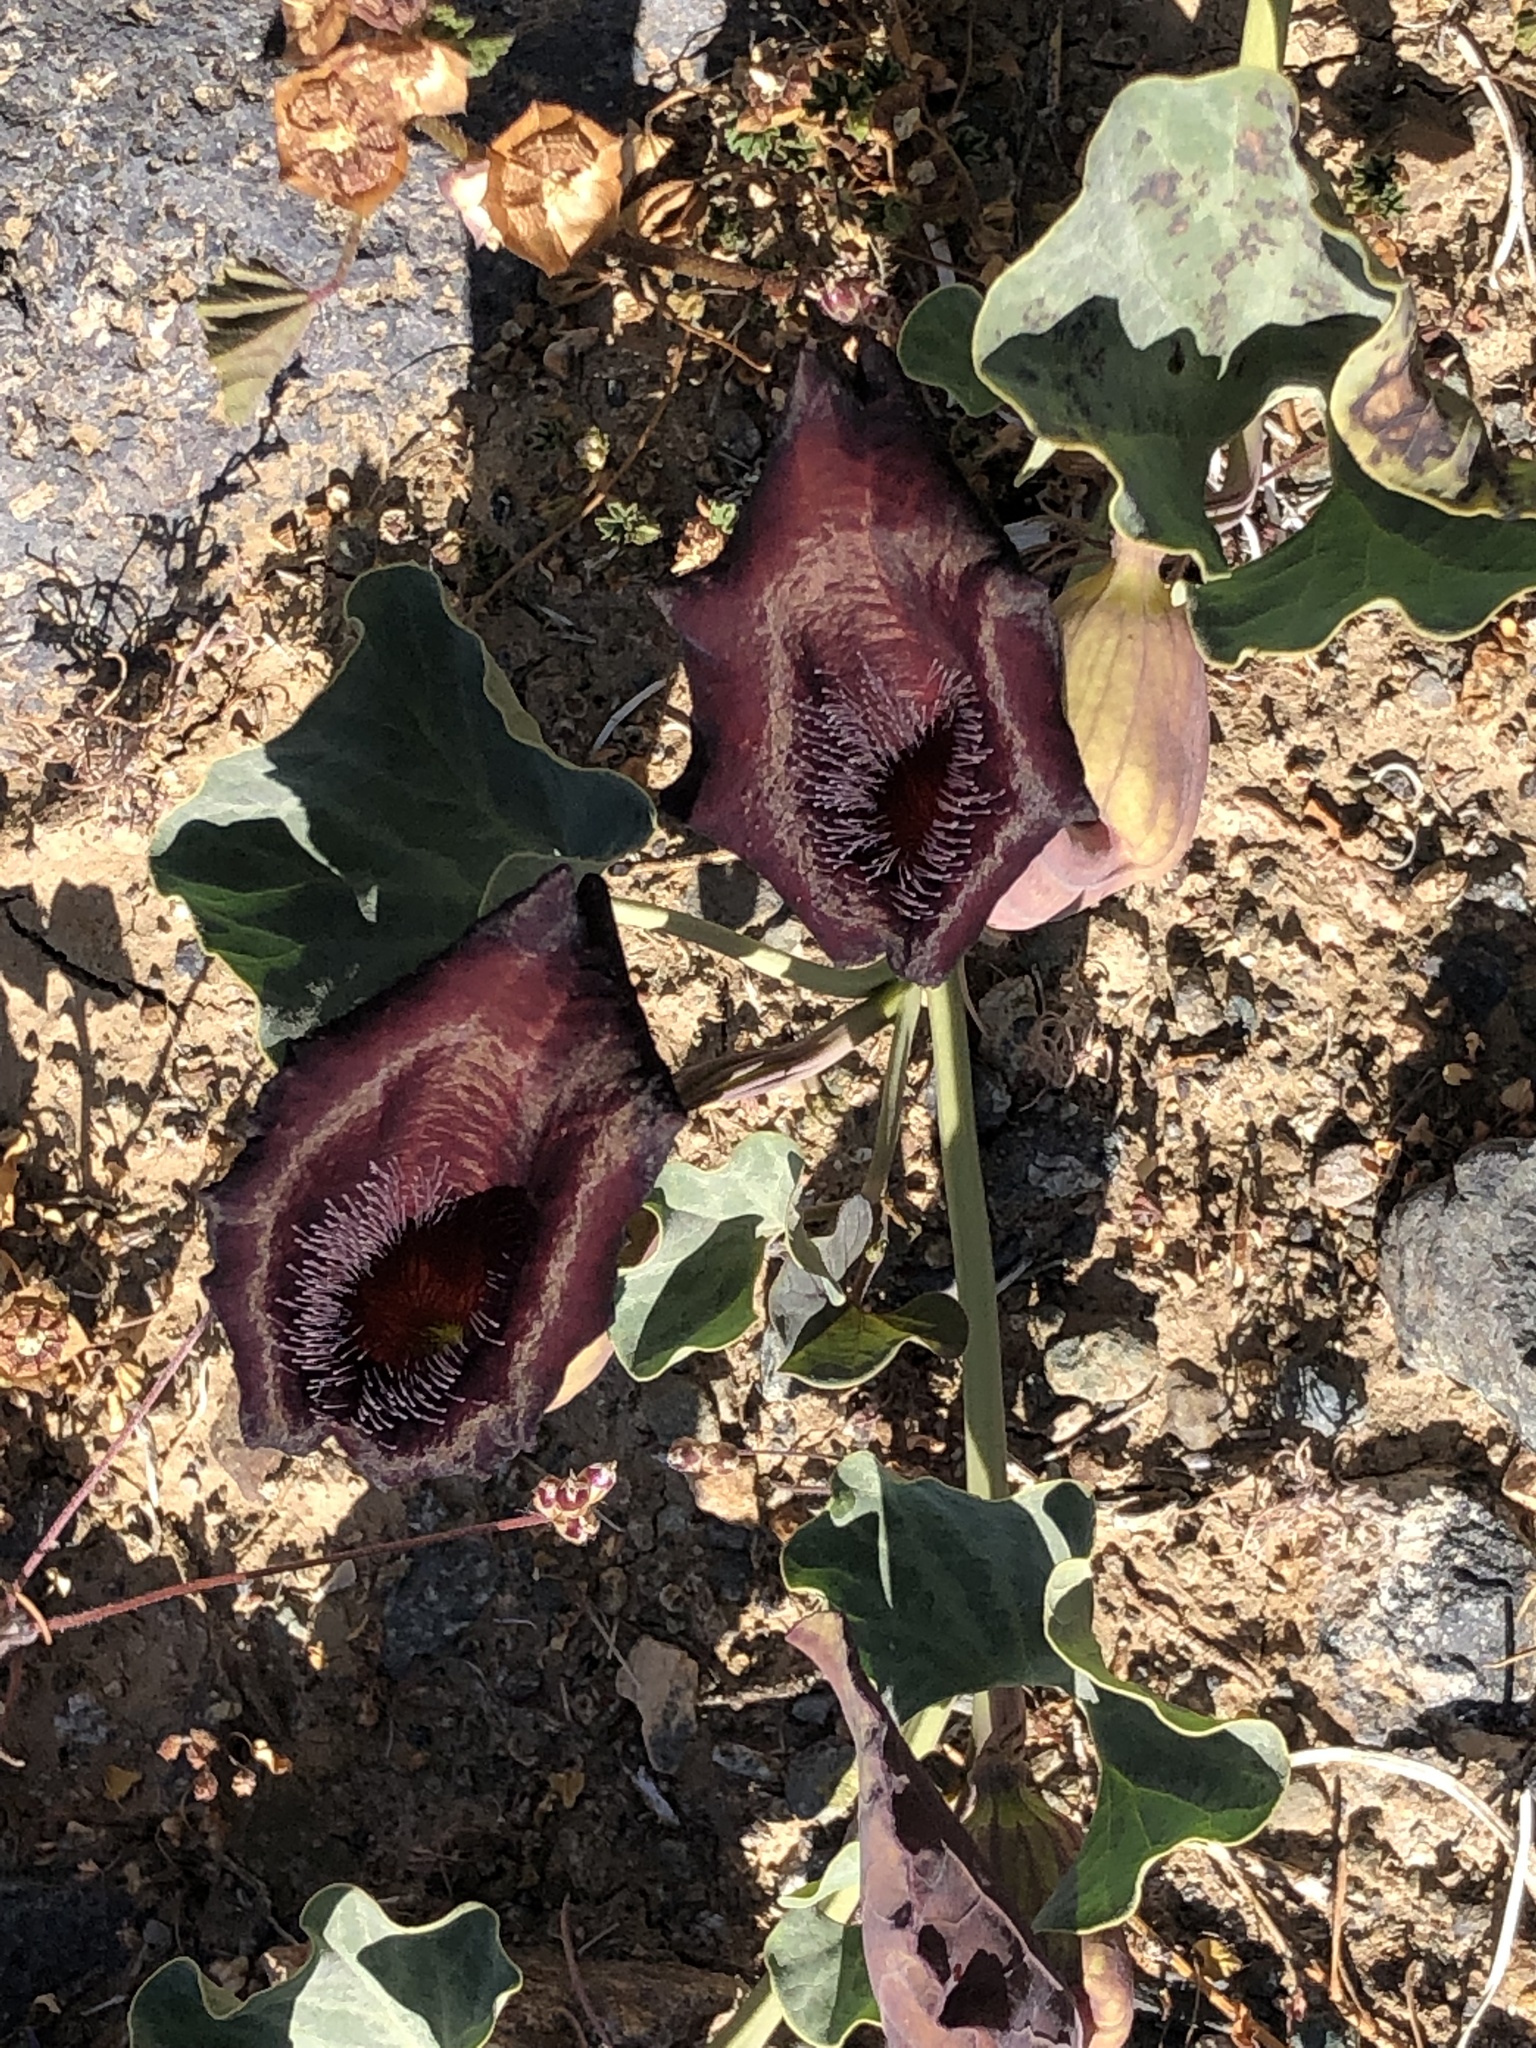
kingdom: Plantae
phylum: Tracheophyta
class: Magnoliopsida
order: Piperales
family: Aristolochiaceae
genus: Aristolochia
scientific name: Aristolochia chilensis
